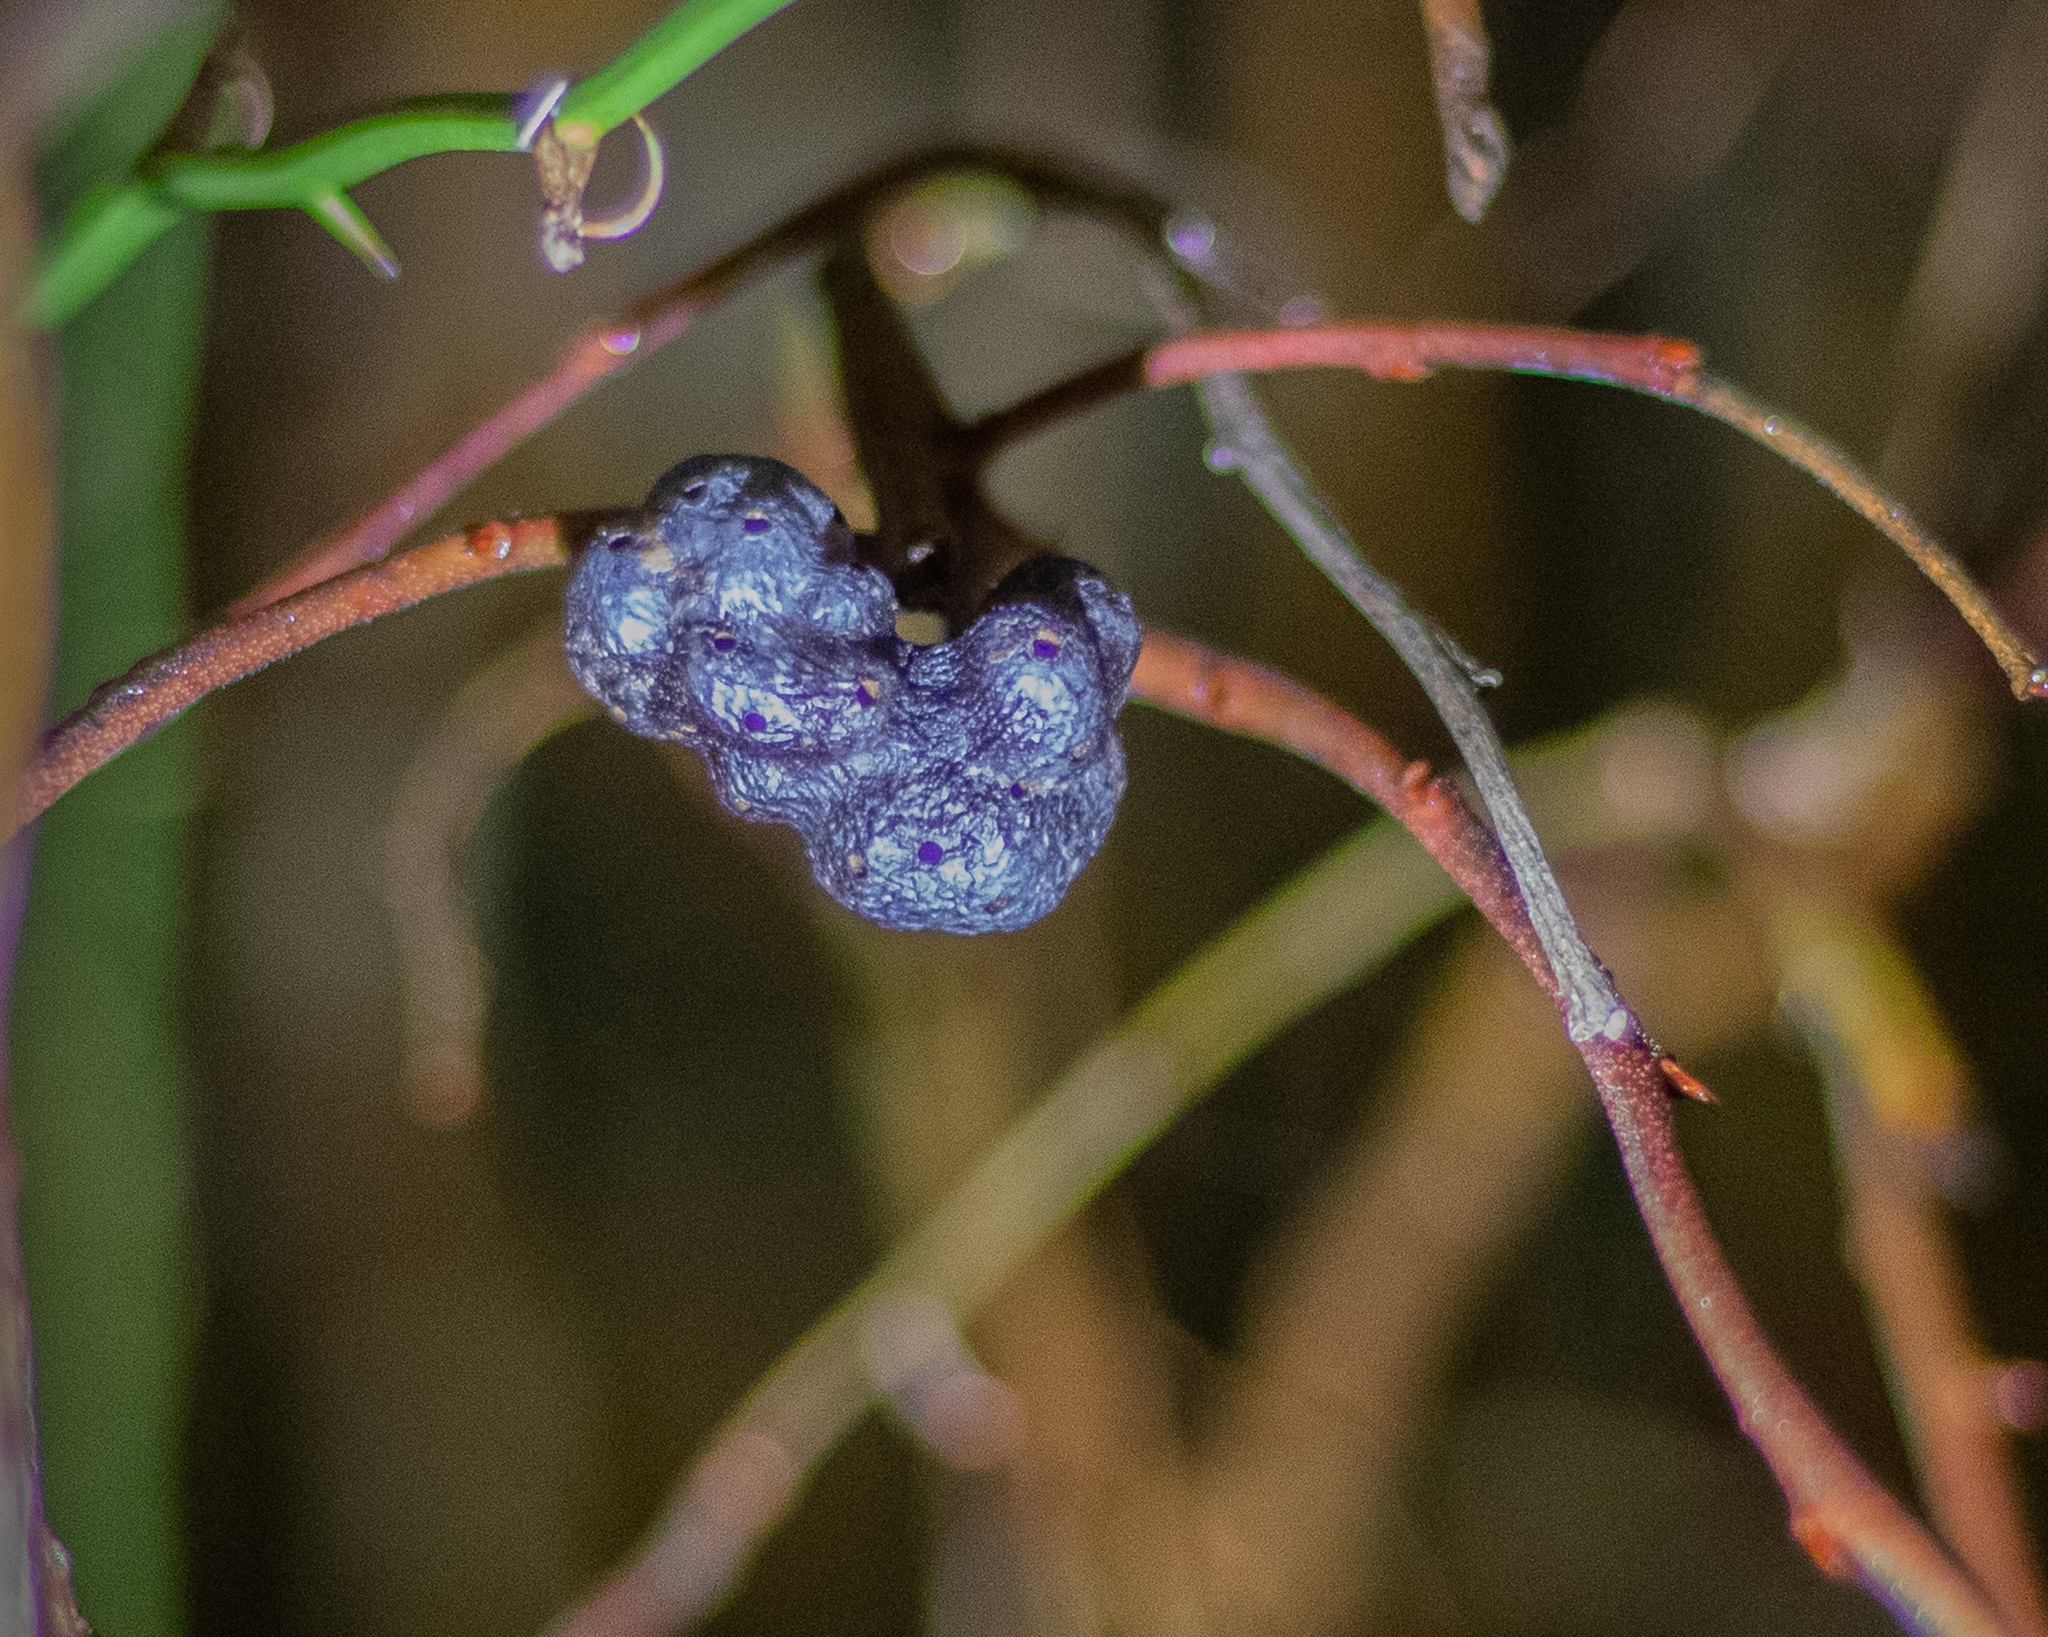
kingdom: Animalia
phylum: Arthropoda
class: Insecta
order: Hymenoptera
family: Pteromalidae
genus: Hemadas
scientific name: Hemadas nubilipennis
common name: Blueberry stem gall wasp
